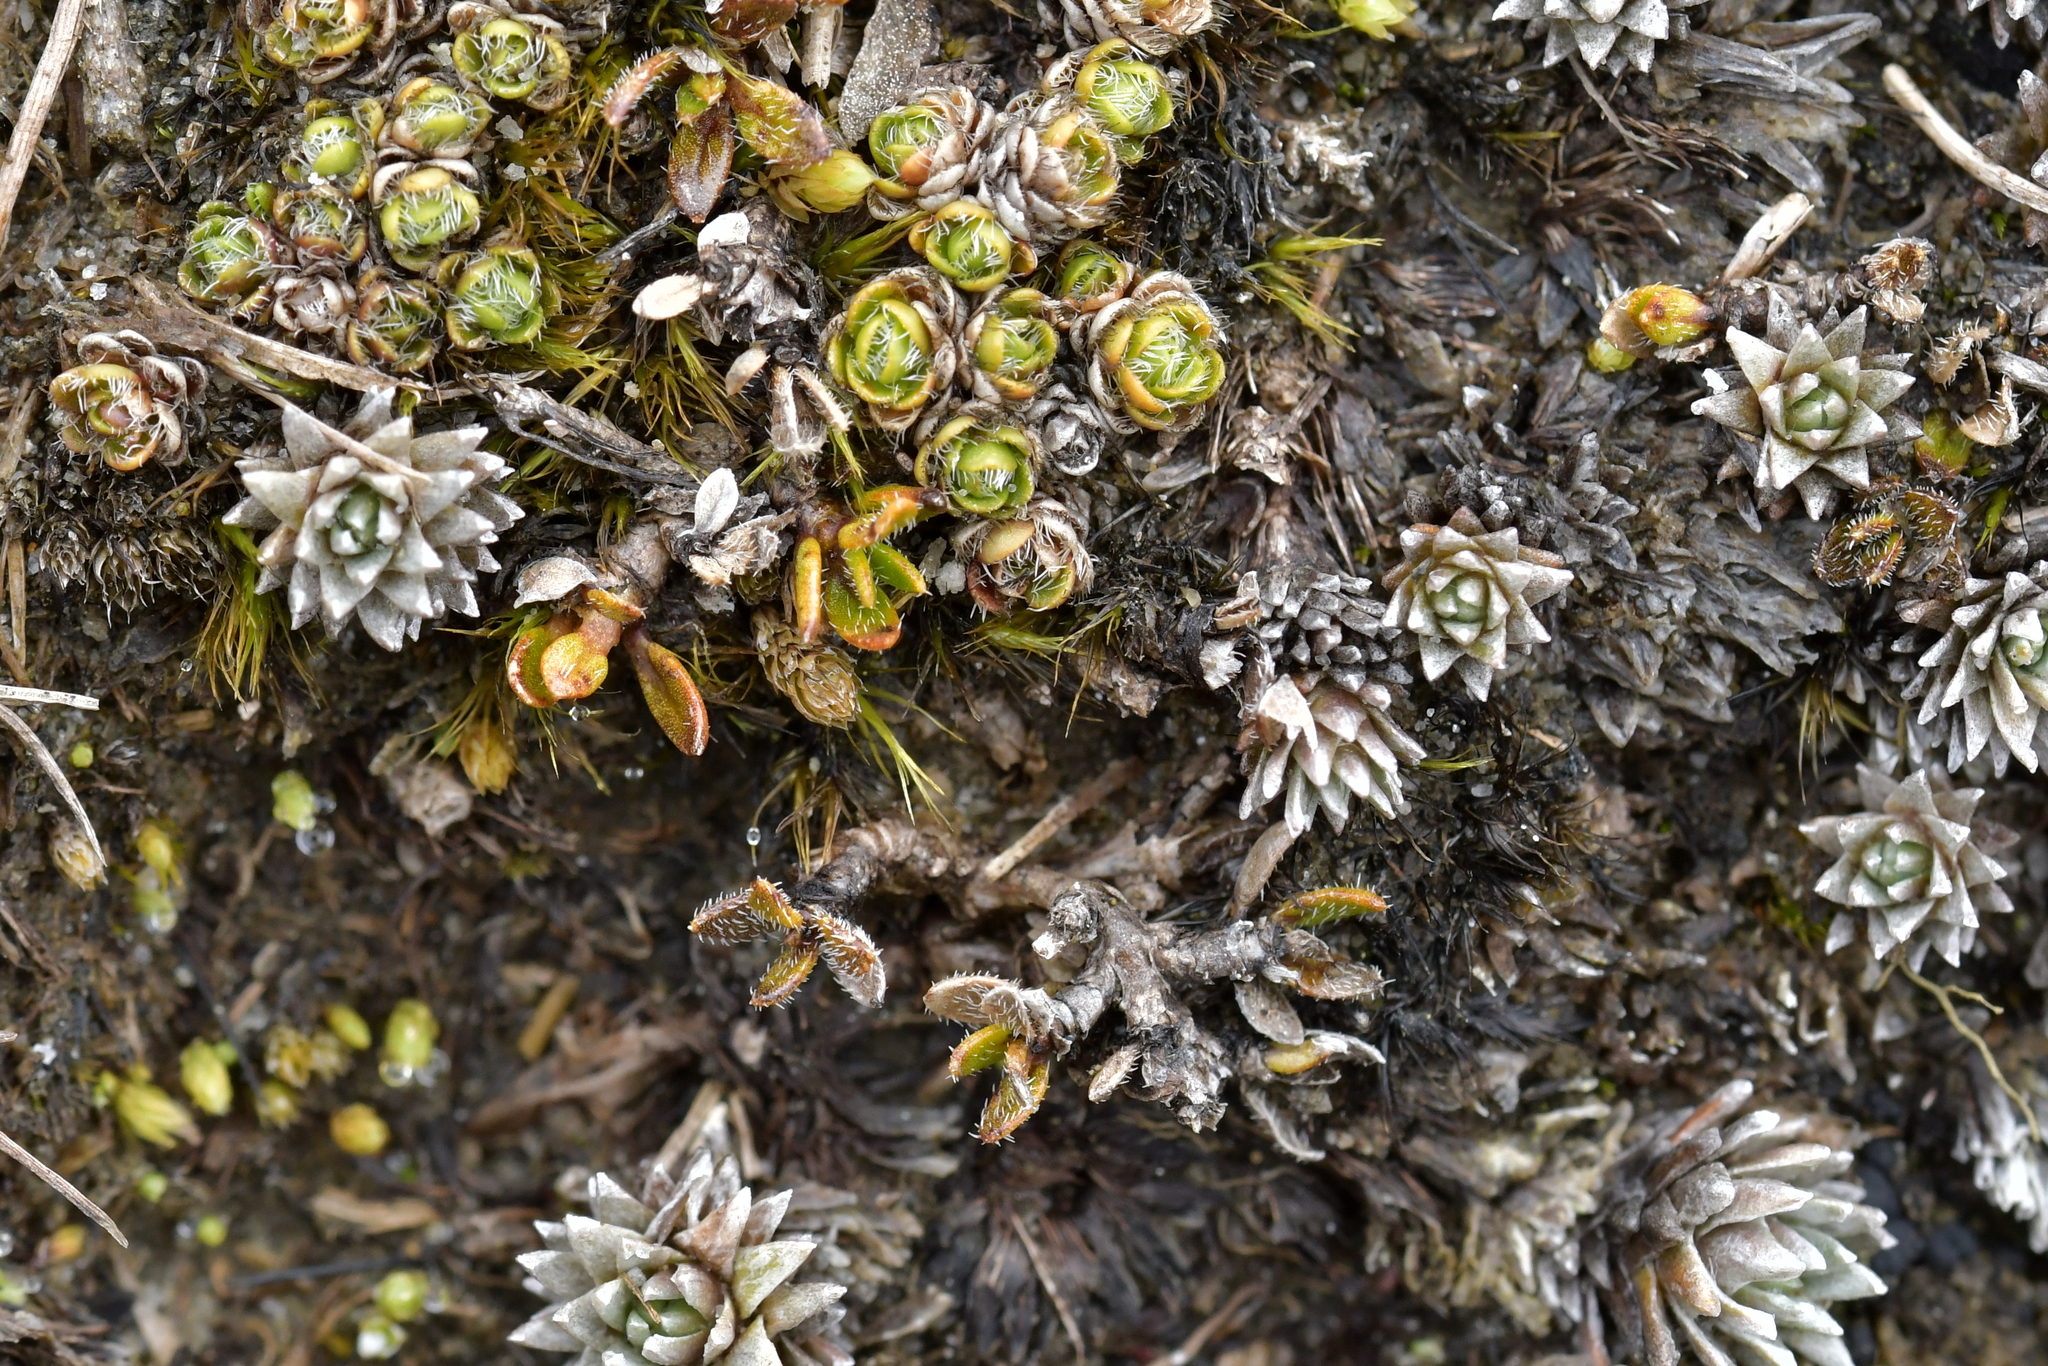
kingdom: Plantae
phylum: Tracheophyta
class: Magnoliopsida
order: Gentianales
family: Rubiaceae
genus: Coprosma
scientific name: Coprosma atropurpurea
